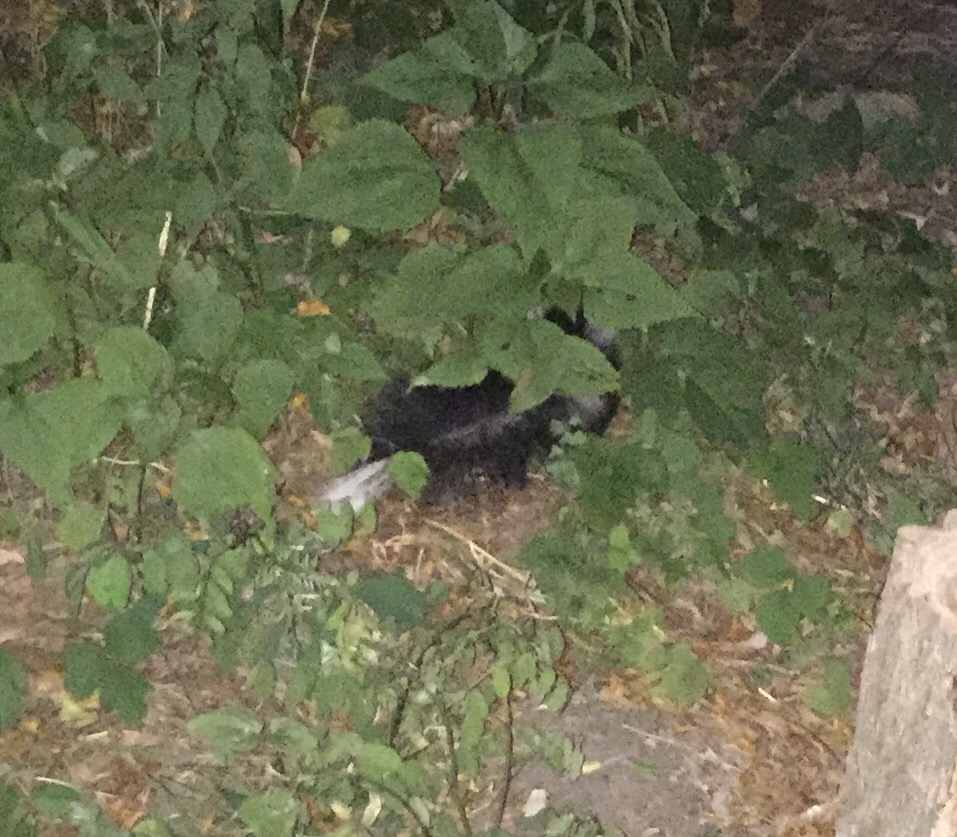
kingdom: Animalia
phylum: Chordata
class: Mammalia
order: Carnivora
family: Mephitidae
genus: Mephitis
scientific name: Mephitis mephitis
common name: Striped skunk
